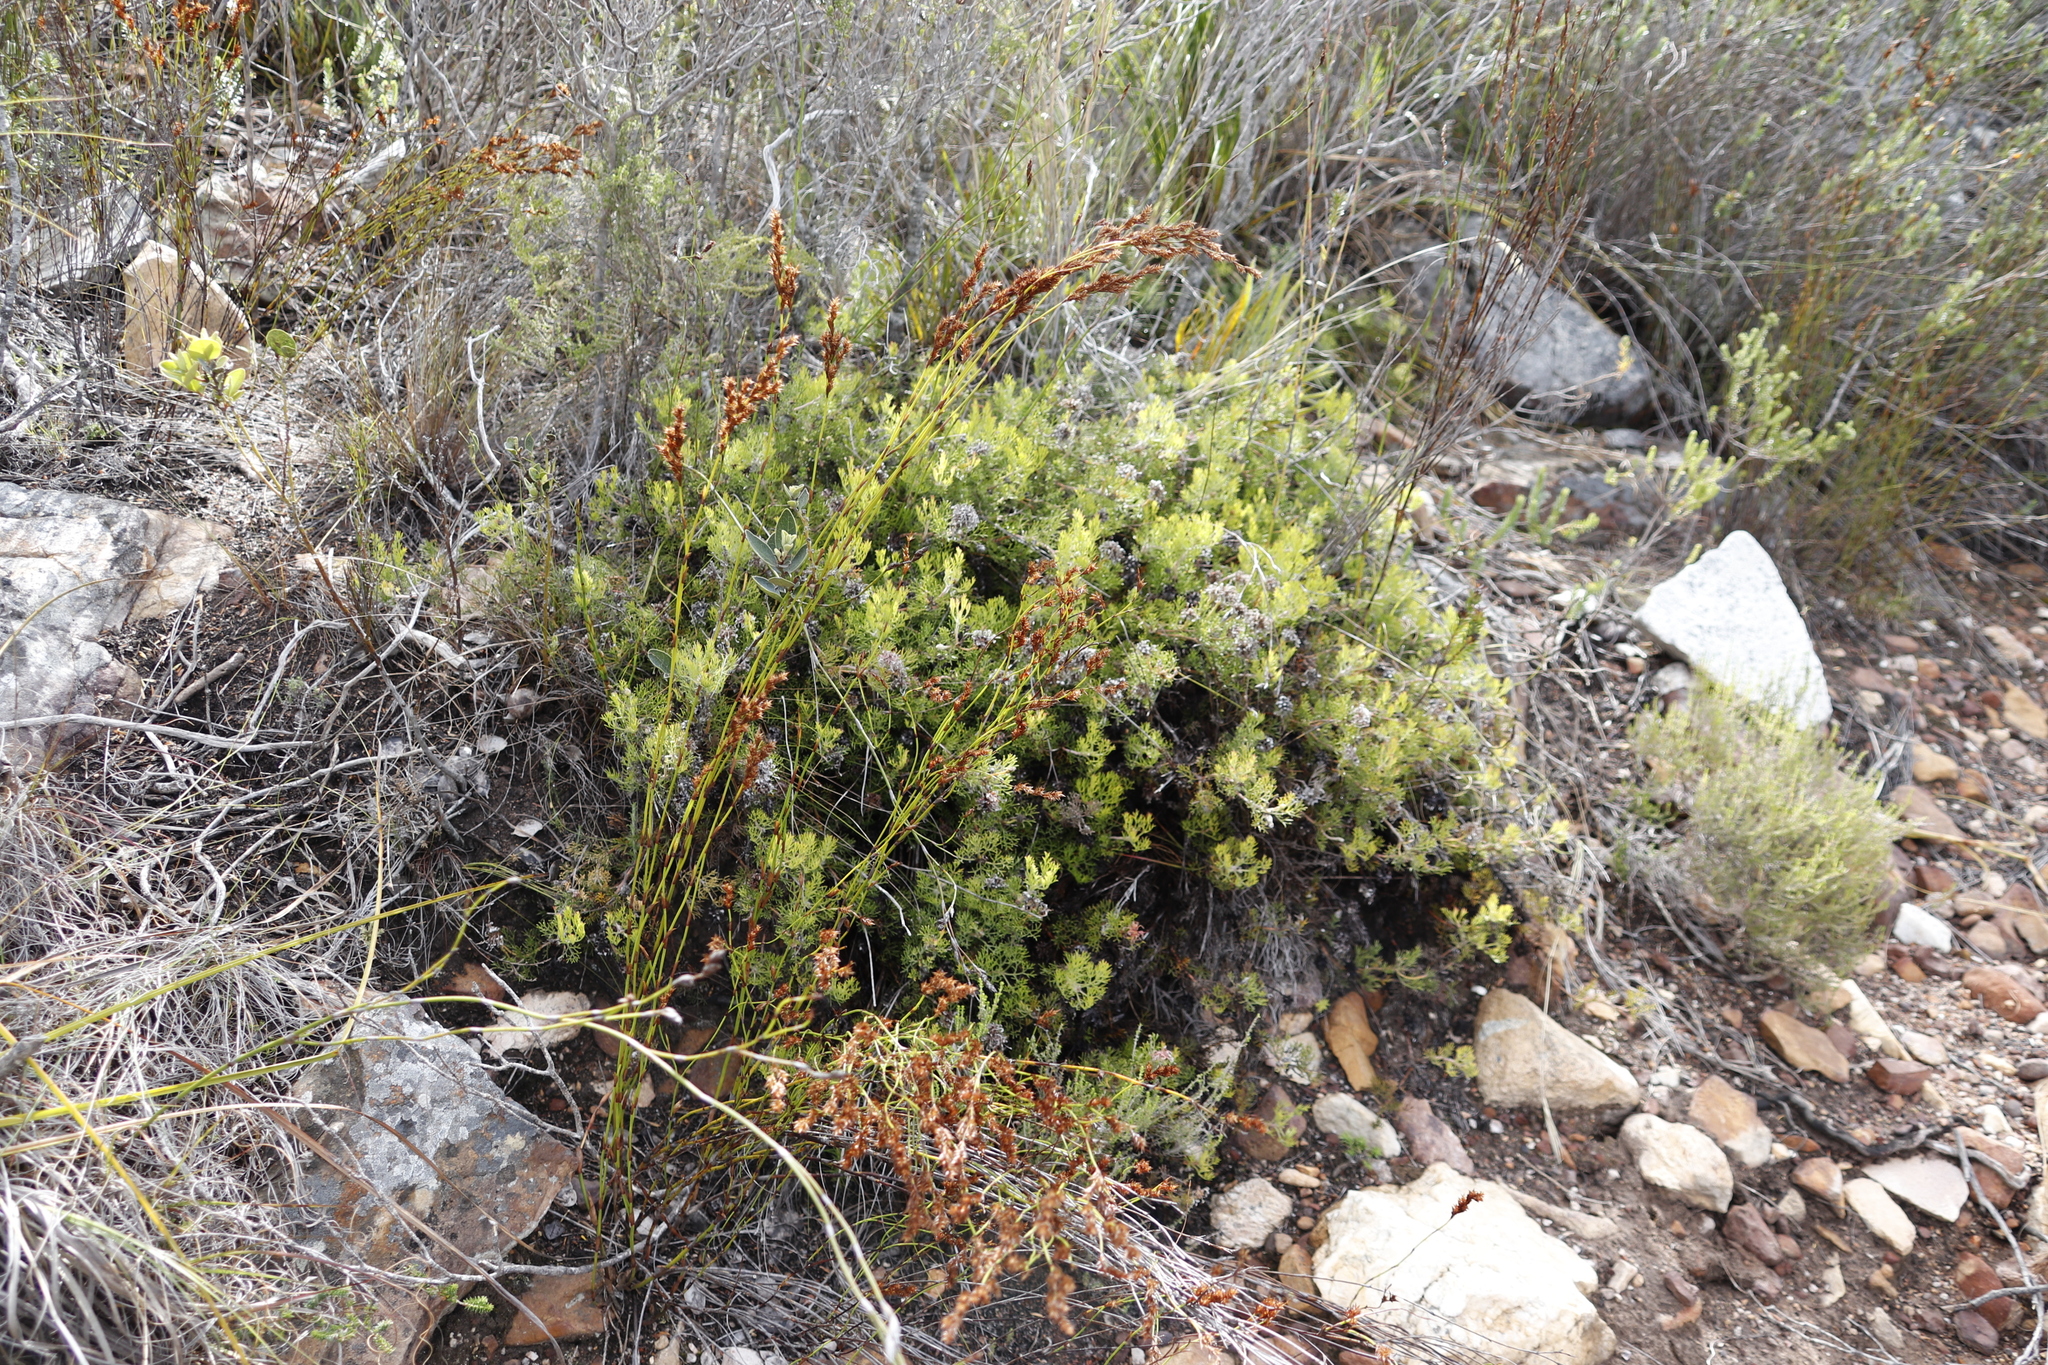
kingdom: Plantae
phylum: Tracheophyta
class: Magnoliopsida
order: Proteales
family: Proteaceae
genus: Serruria
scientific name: Serruria
